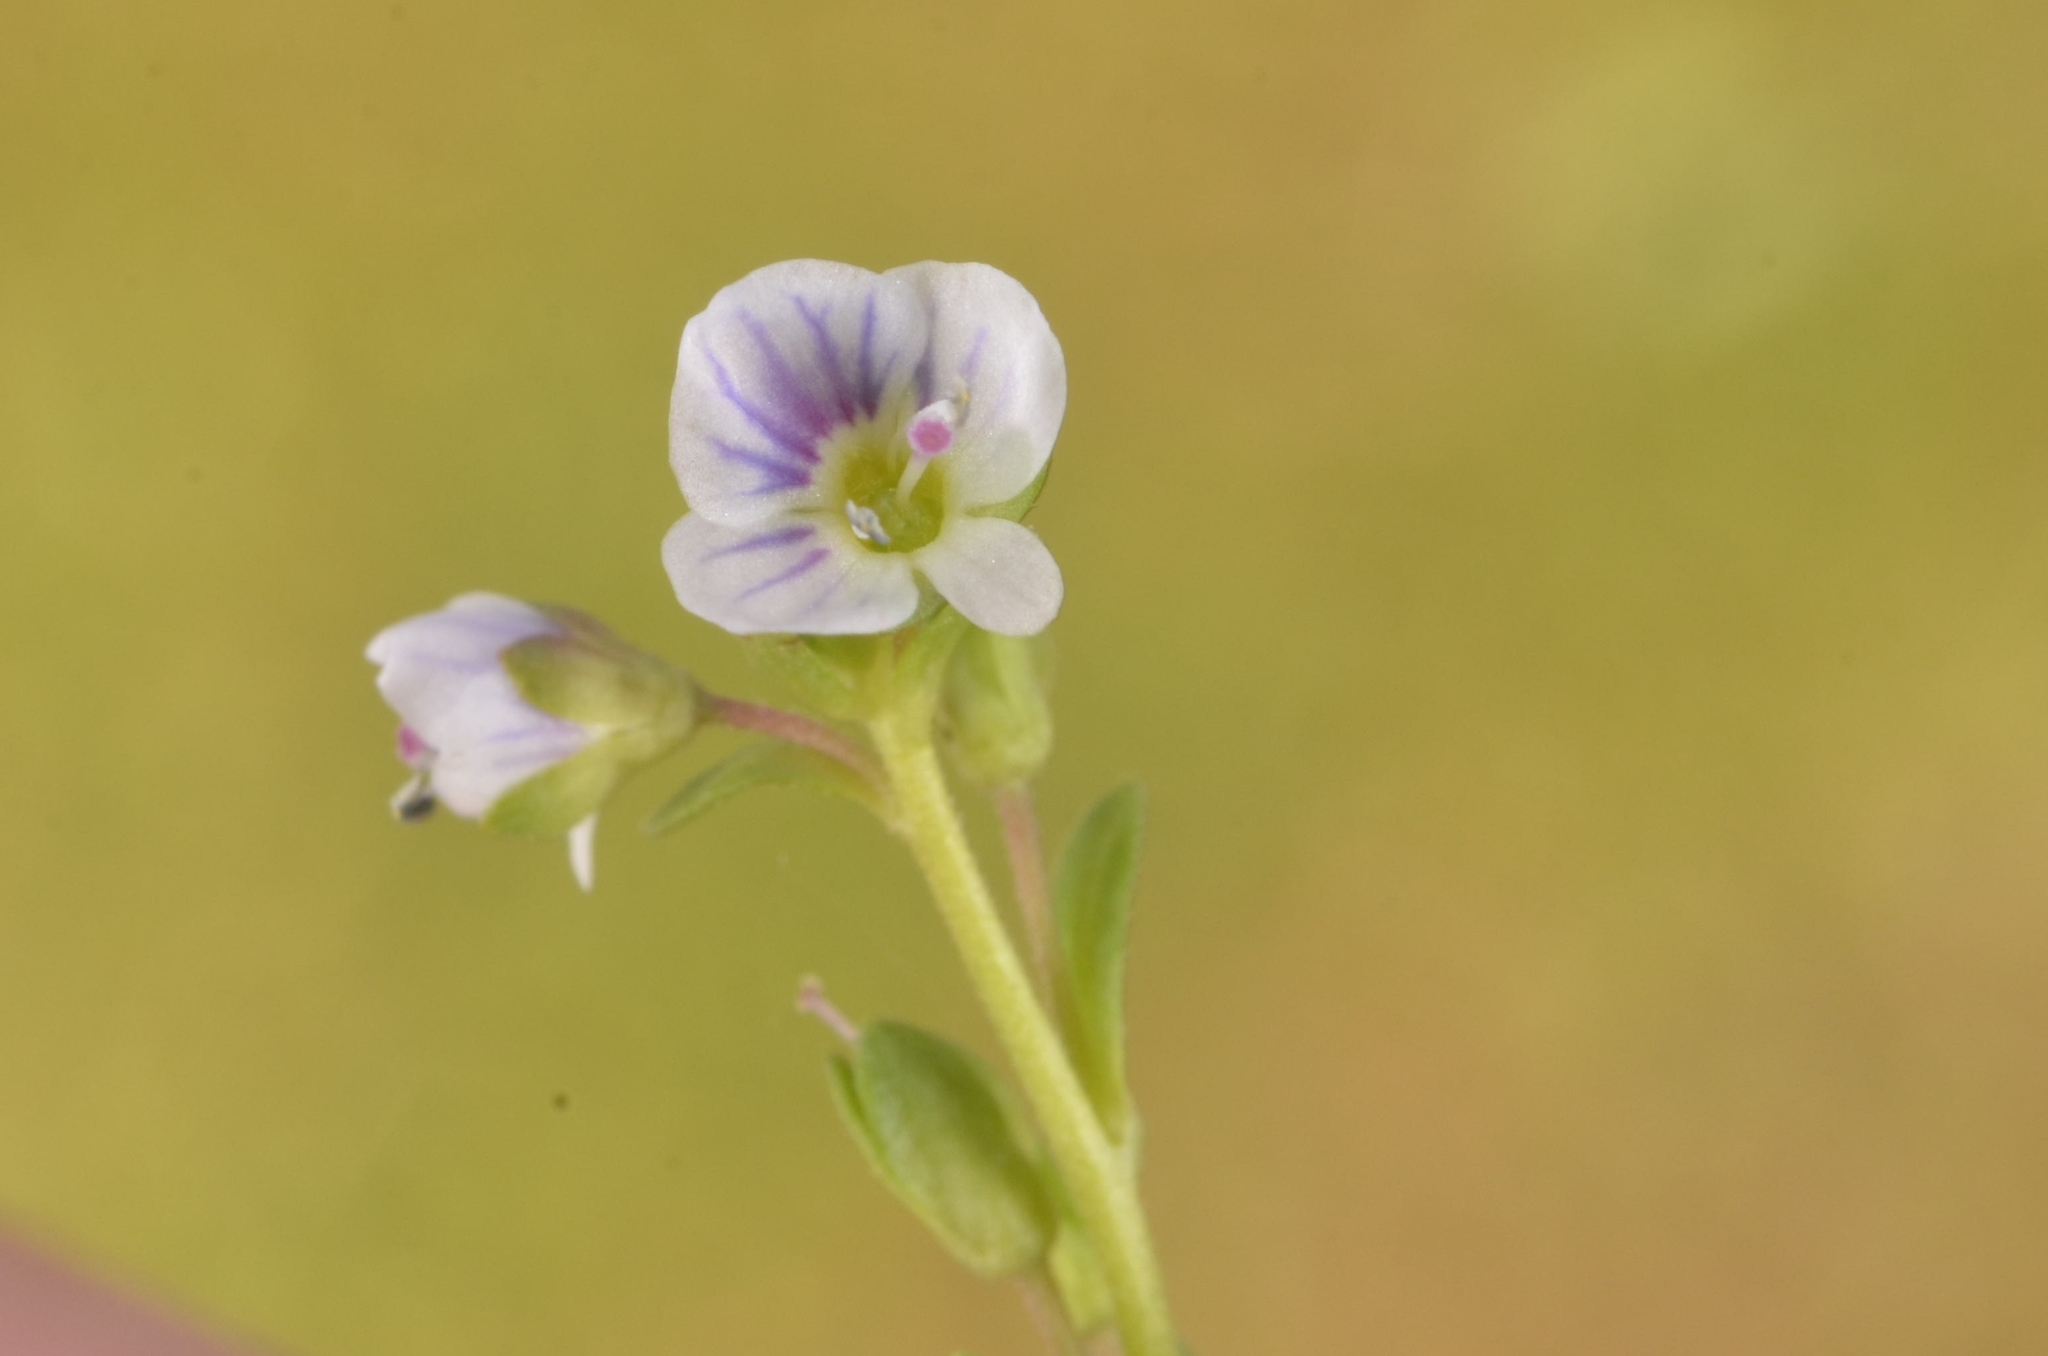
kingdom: Plantae
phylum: Tracheophyta
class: Magnoliopsida
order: Lamiales
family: Plantaginaceae
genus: Veronica
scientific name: Veronica serpyllifolia
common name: Thyme-leaved speedwell
